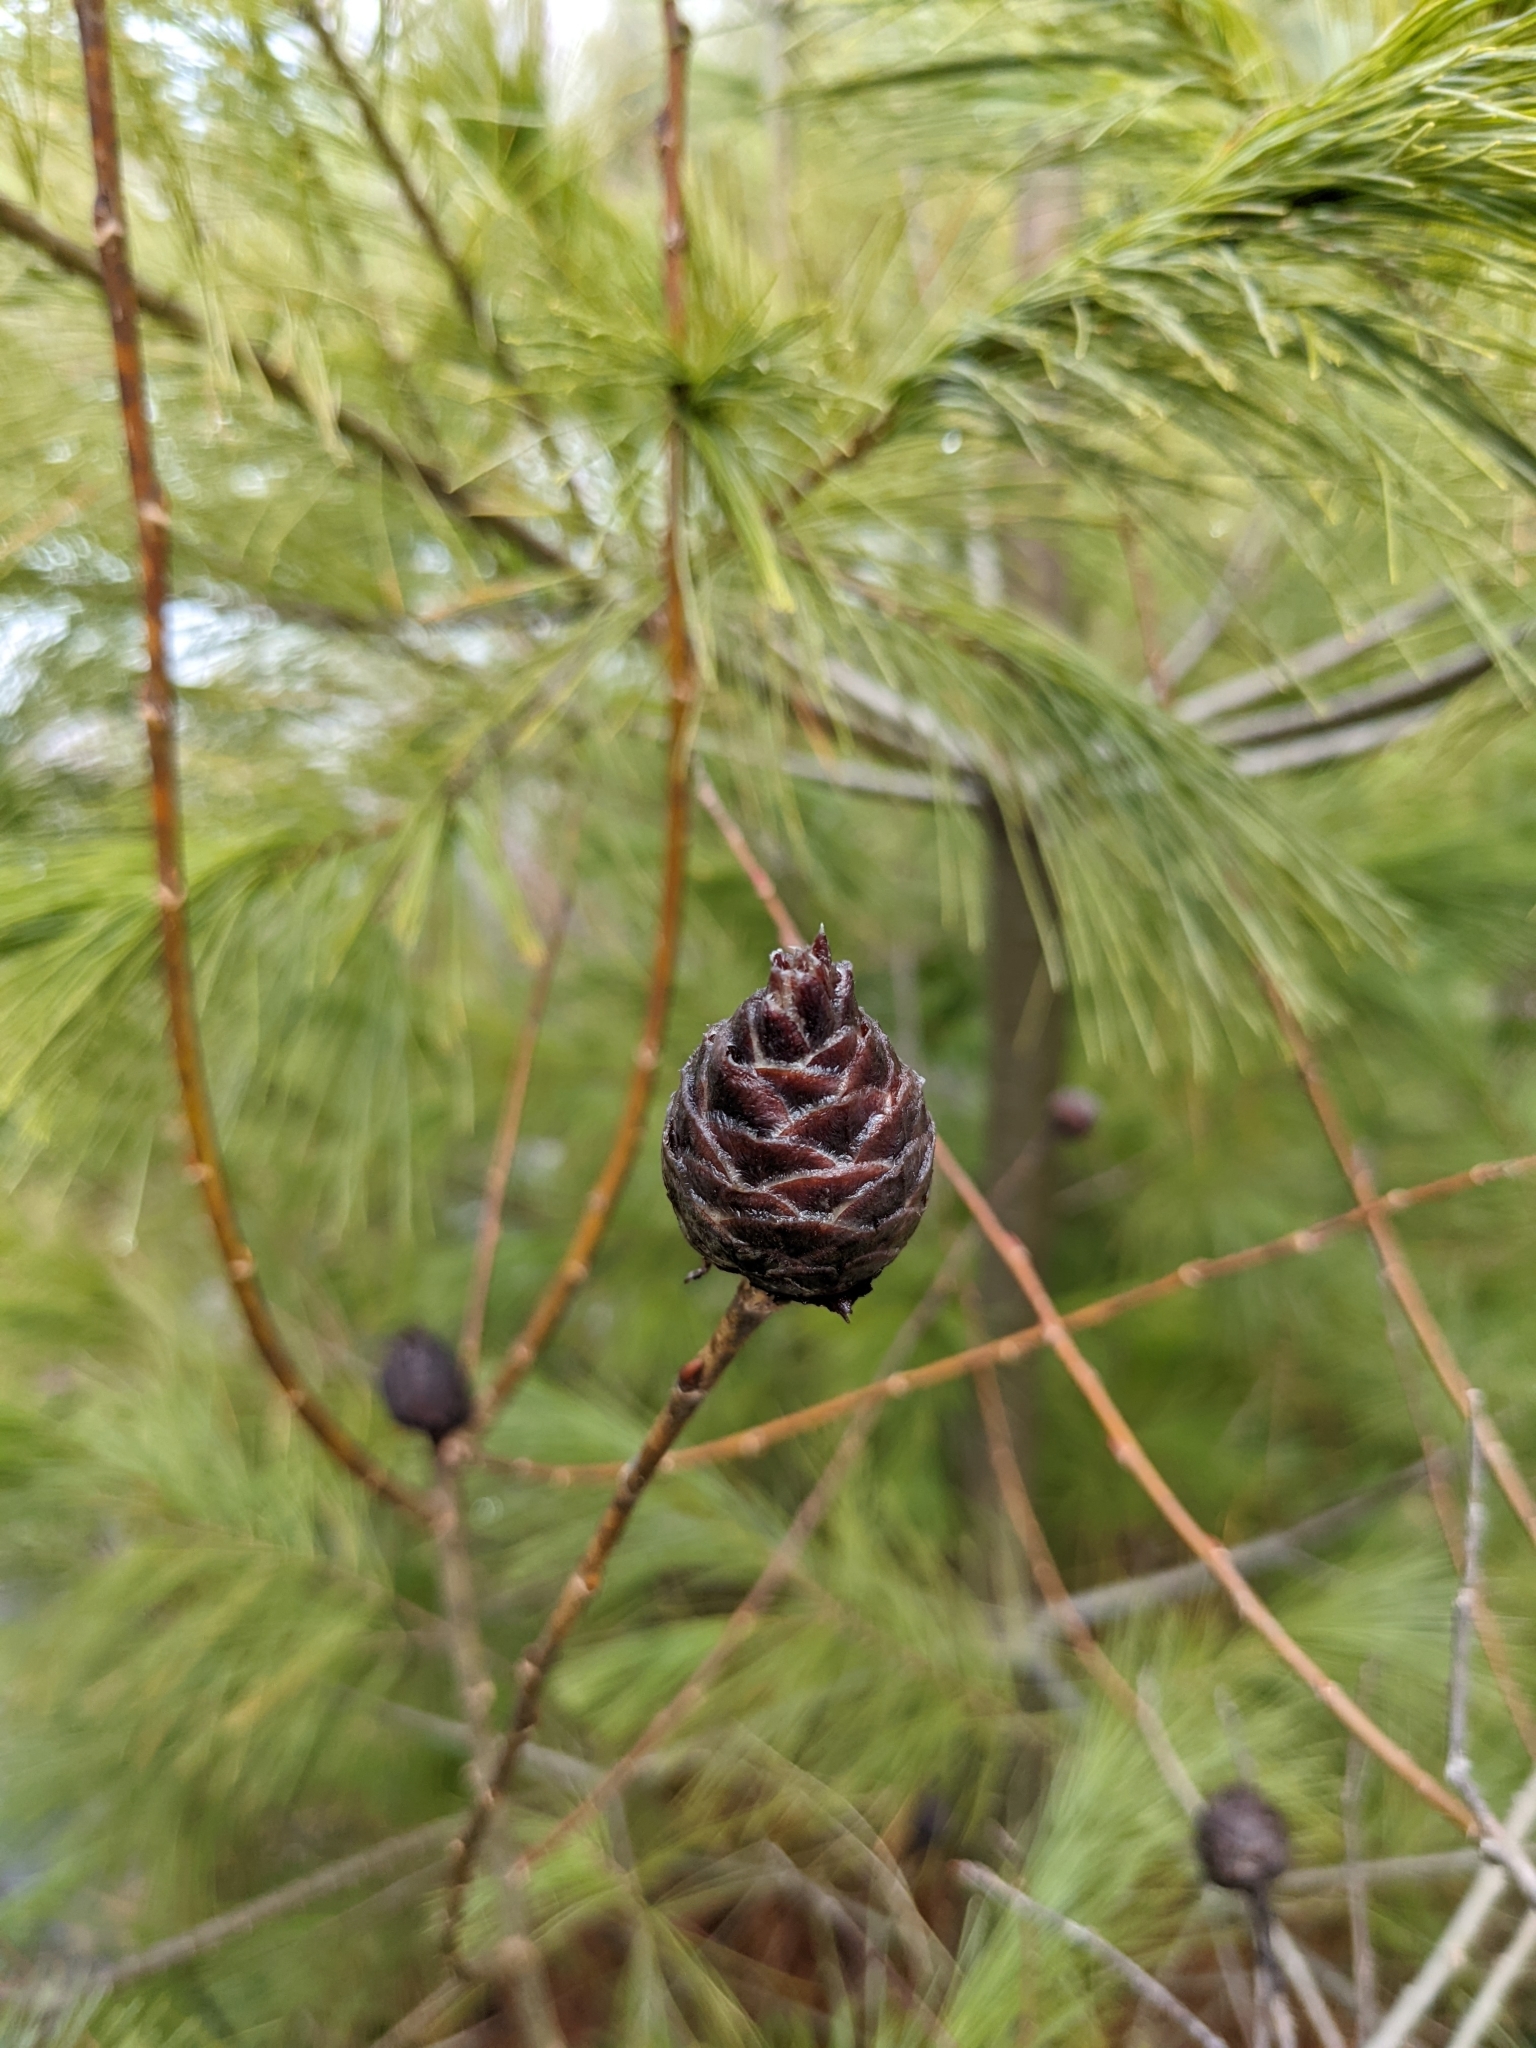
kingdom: Animalia
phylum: Arthropoda
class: Insecta
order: Diptera
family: Cecidomyiidae
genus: Rabdophaga
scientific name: Rabdophaga strobiloides
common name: Willow pinecone gall midge
